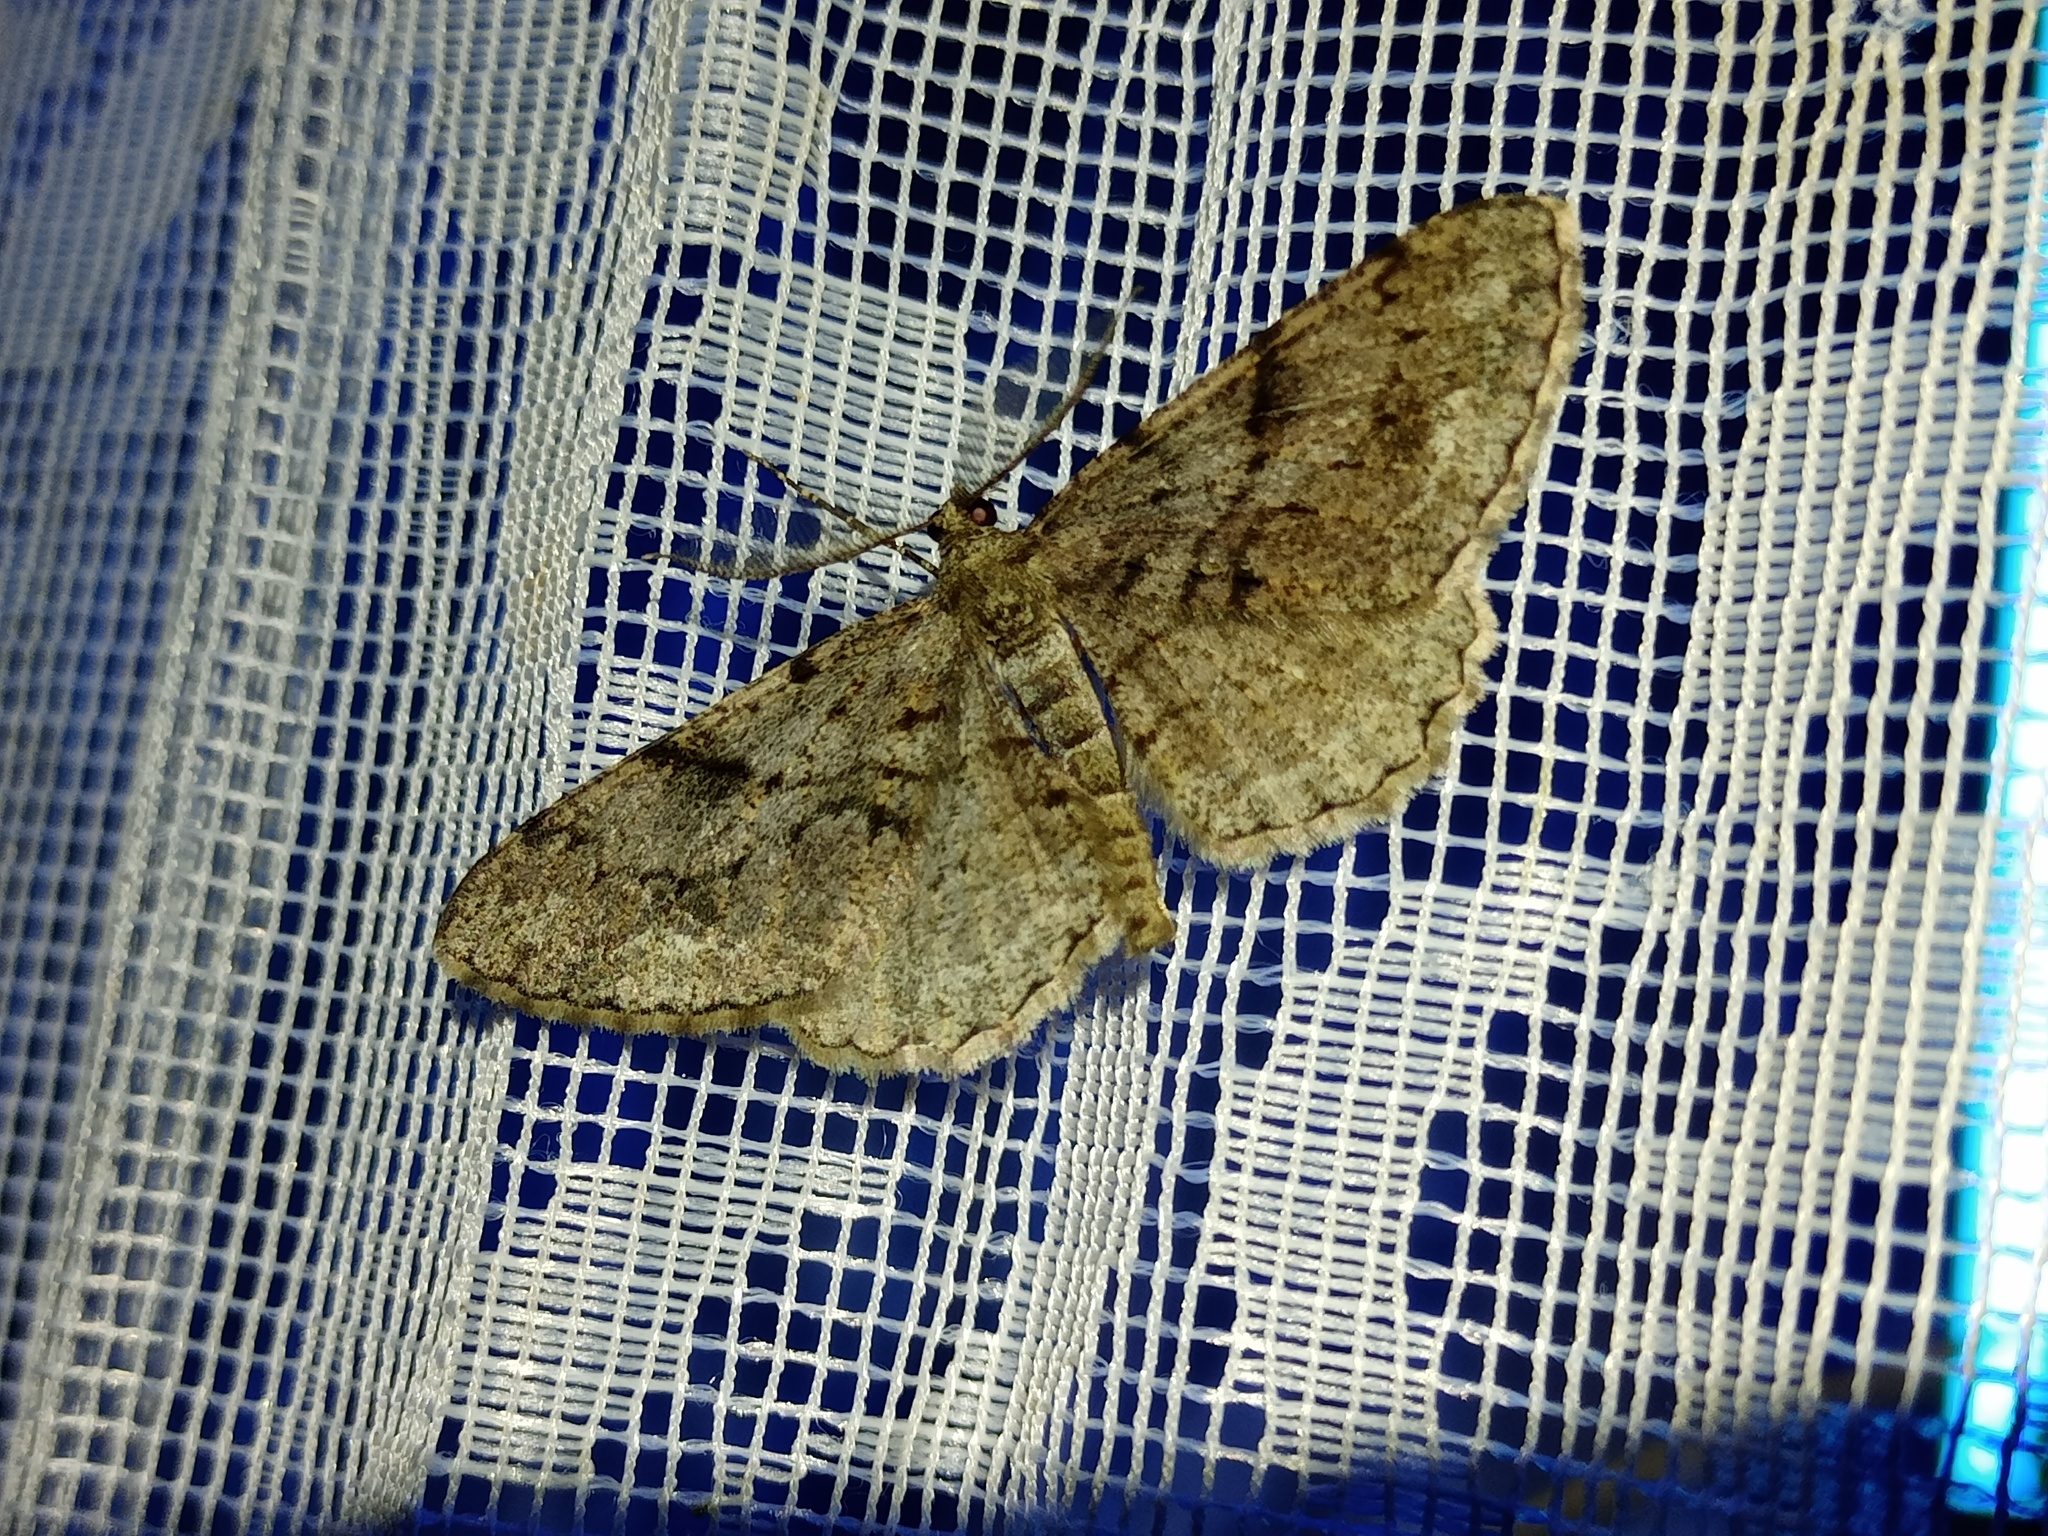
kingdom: Animalia
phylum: Arthropoda
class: Insecta
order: Lepidoptera
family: Geometridae
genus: Peribatodes
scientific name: Peribatodes secundaria
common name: Feathered beauty
